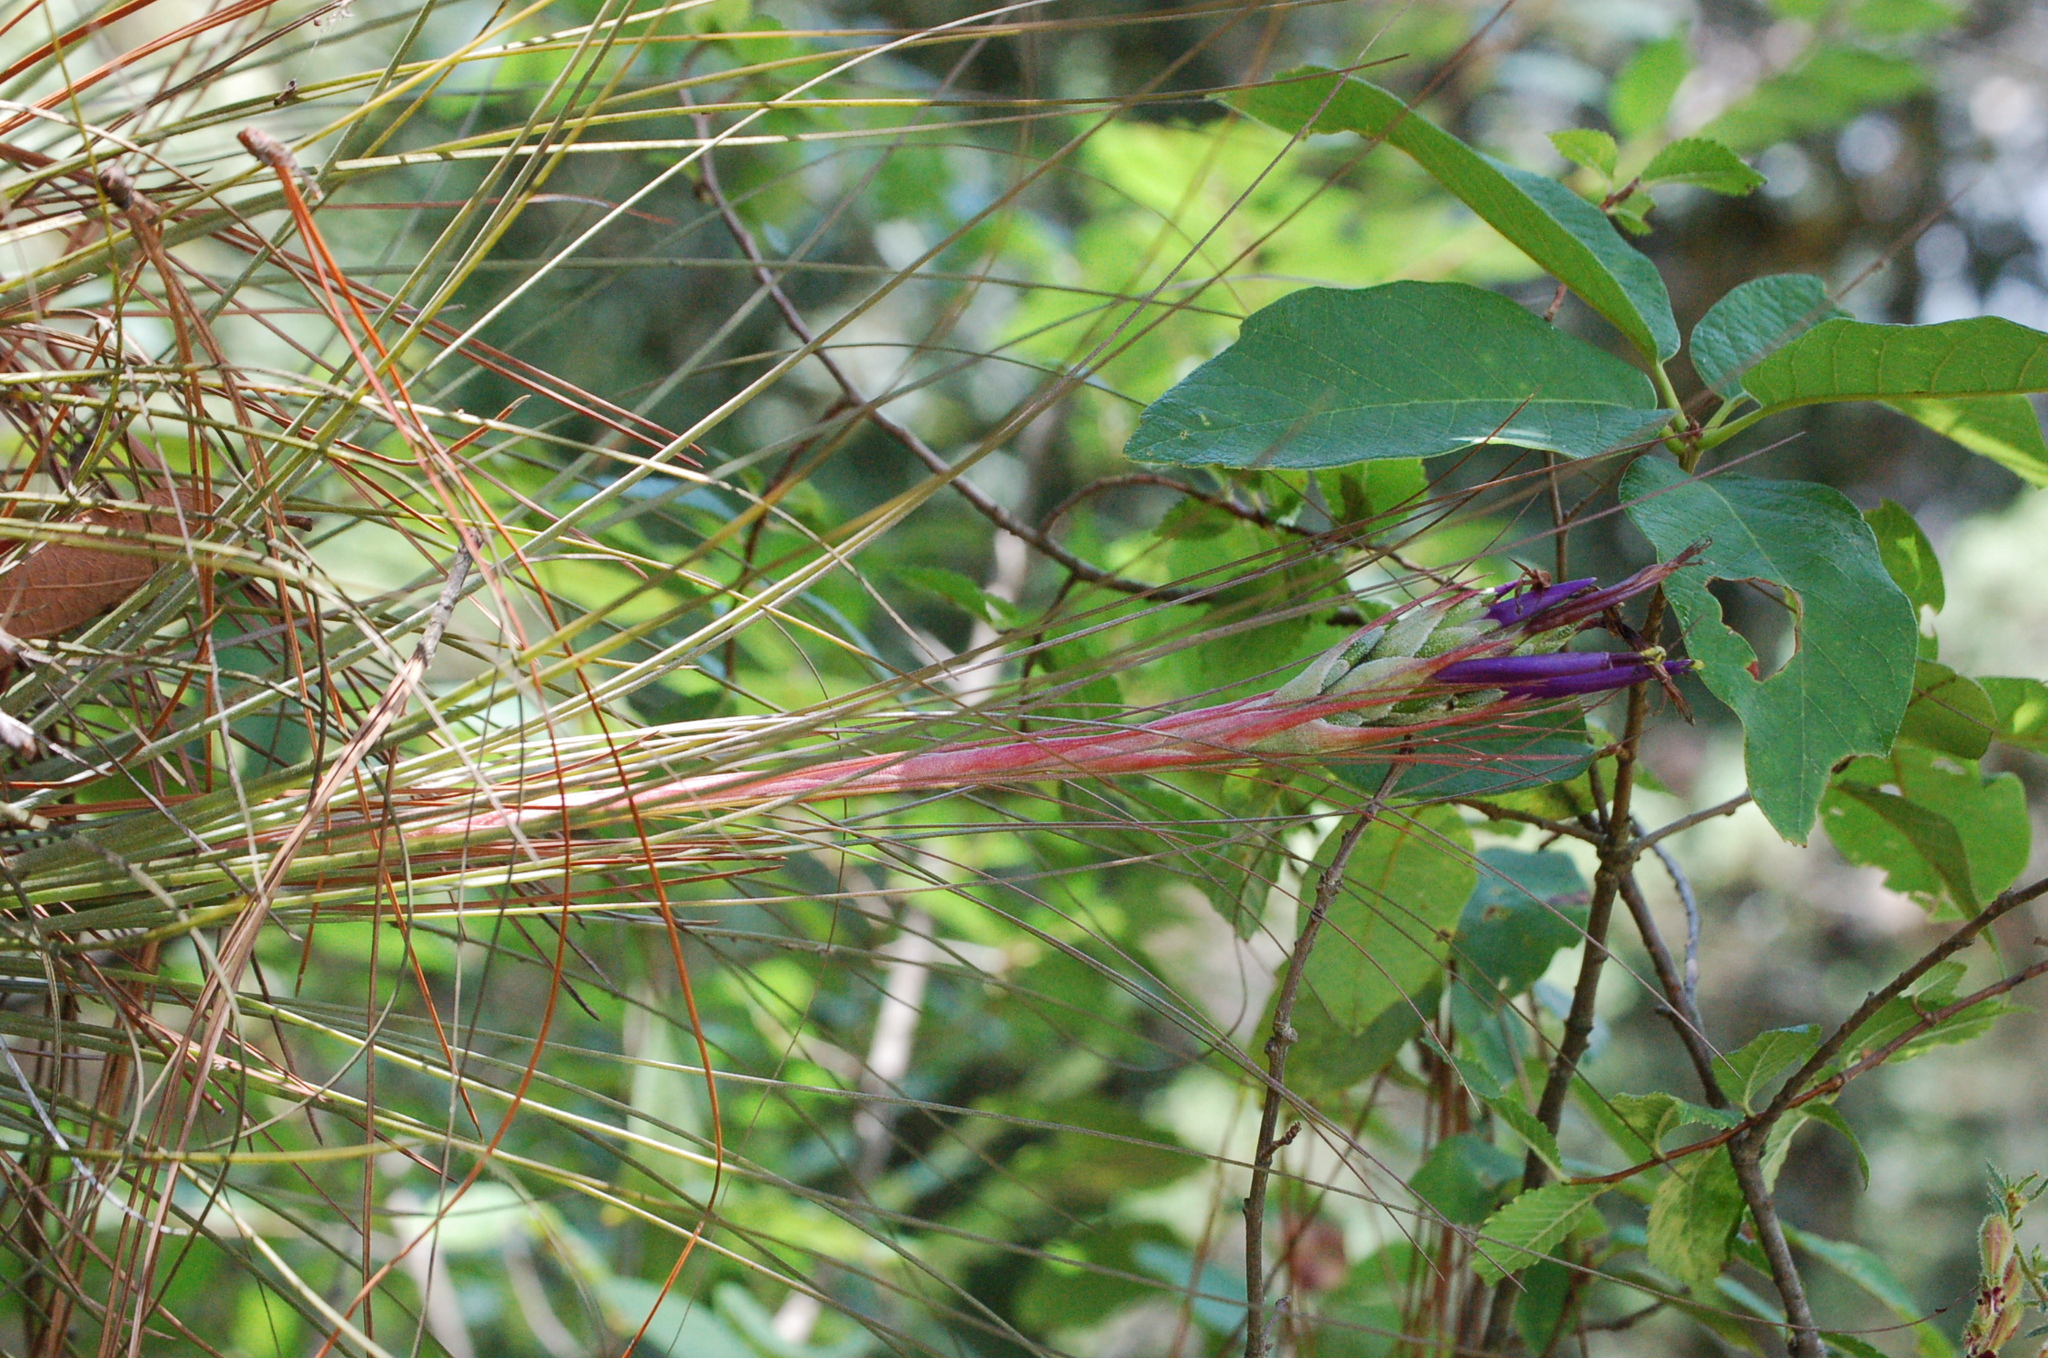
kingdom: Plantae
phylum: Tracheophyta
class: Liliopsida
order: Poales
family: Bromeliaceae
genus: Tillandsia
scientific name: Tillandsia juncea
